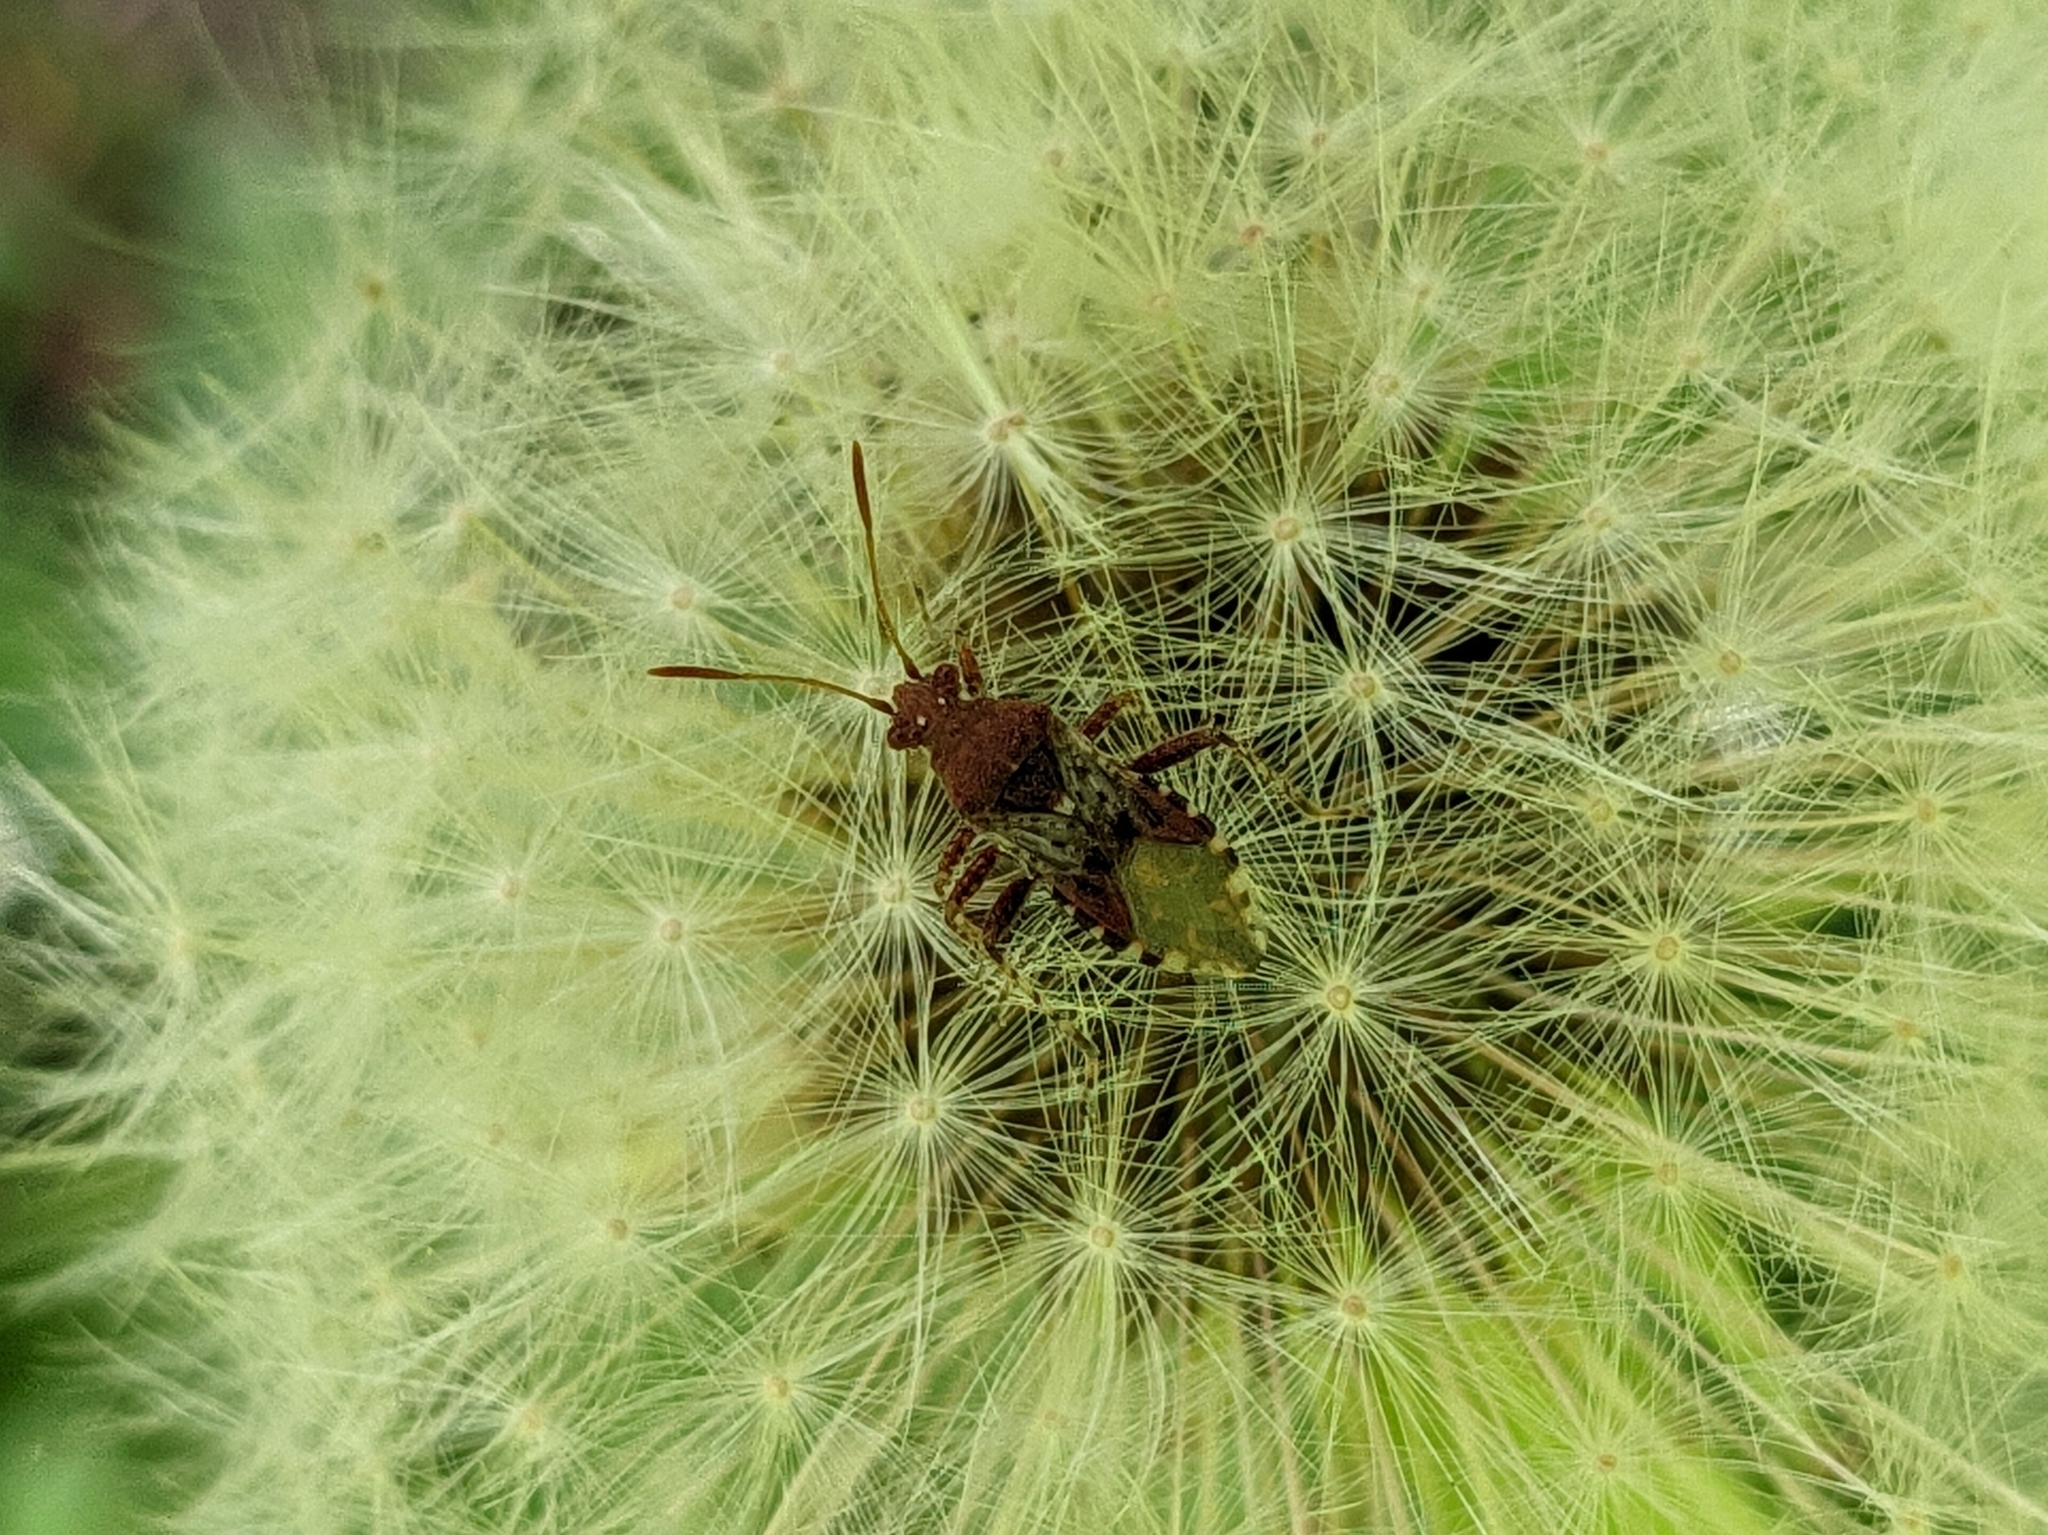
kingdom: Animalia
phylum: Arthropoda
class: Insecta
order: Hemiptera
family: Rhopalidae
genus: Rhopalus
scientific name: Rhopalus subrufus
